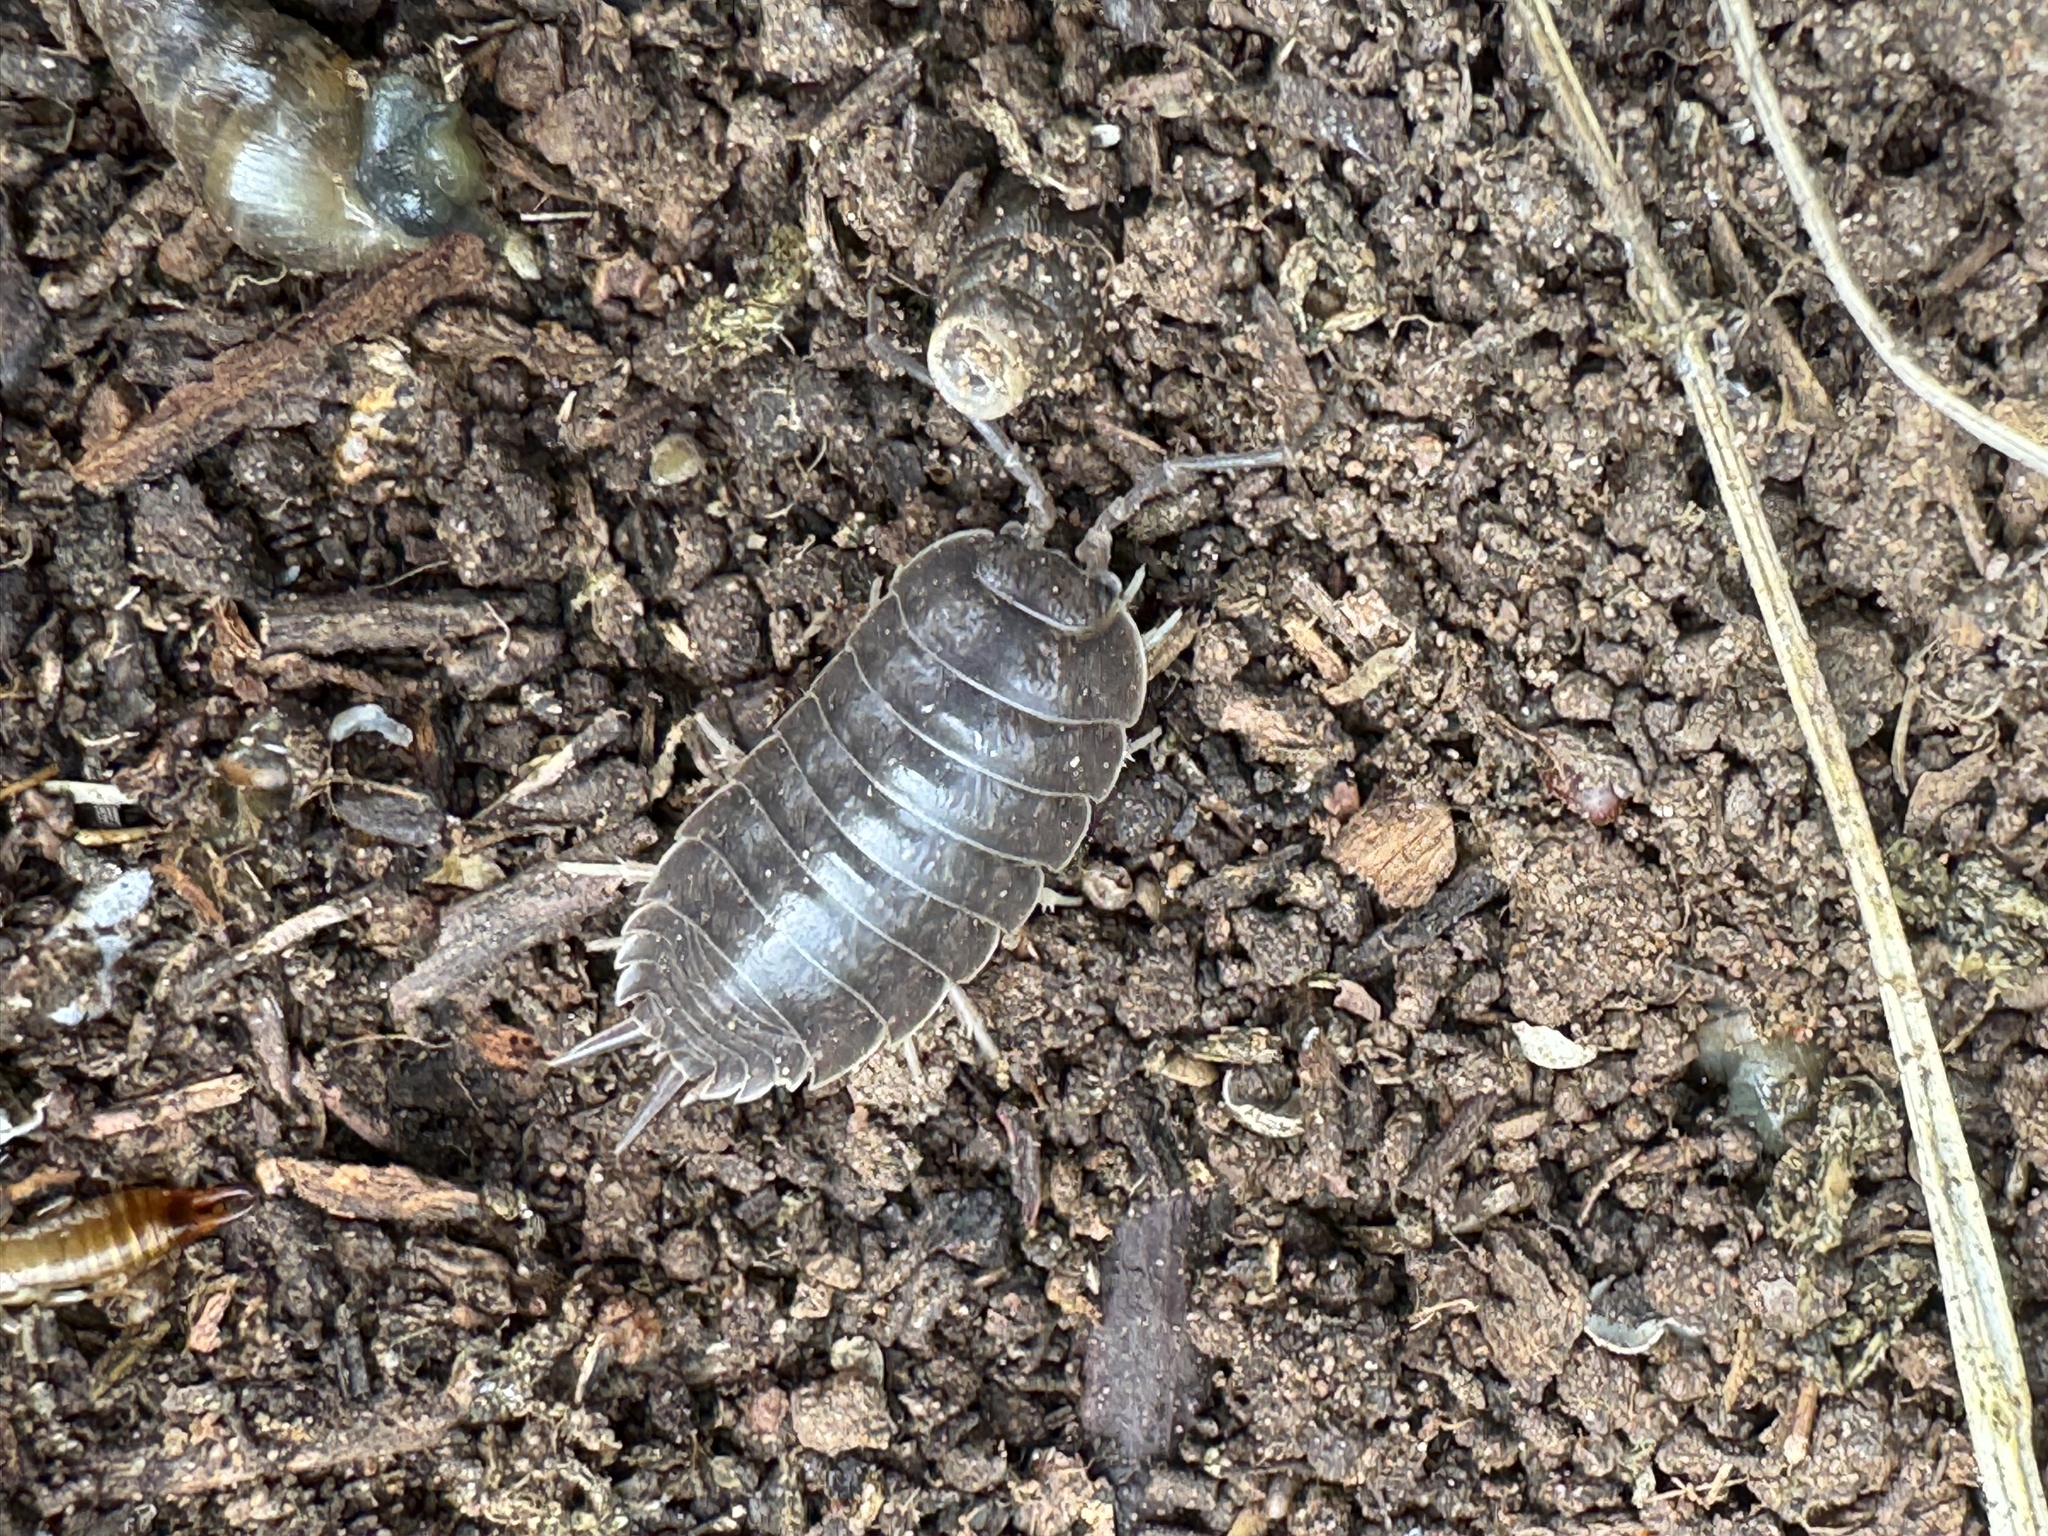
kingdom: Animalia
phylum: Arthropoda
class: Malacostraca
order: Isopoda
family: Porcellionidae
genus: Porcellio
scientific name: Porcellio laevis
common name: Swift woodlouse
